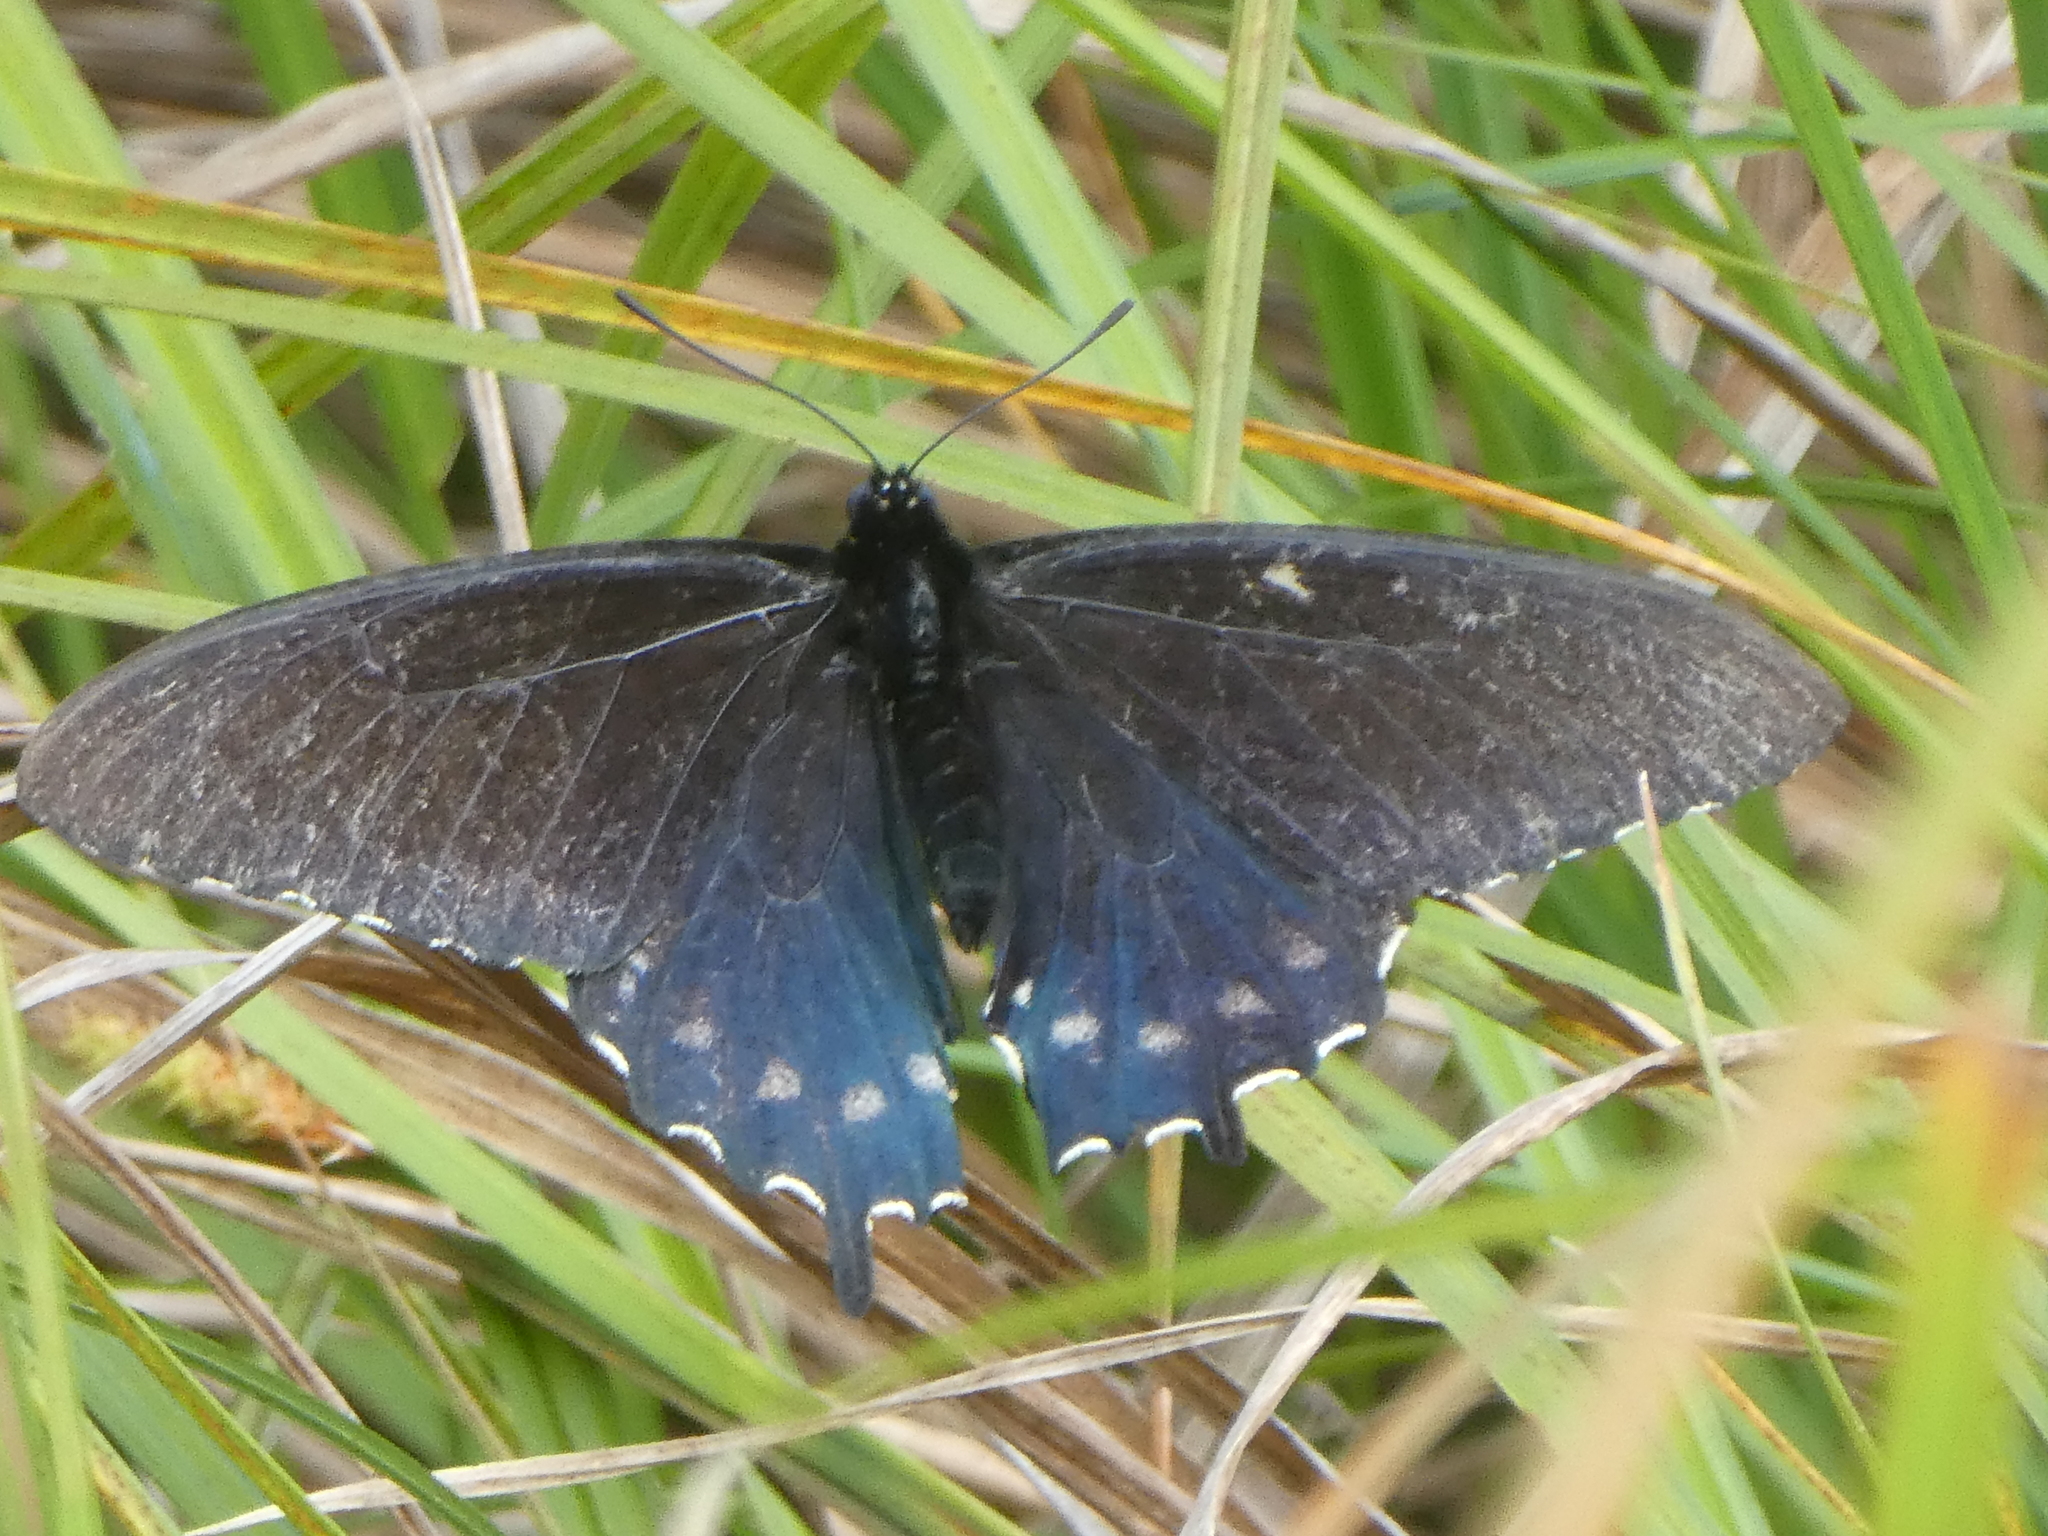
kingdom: Animalia
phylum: Arthropoda
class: Insecta
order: Lepidoptera
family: Papilionidae
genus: Battus
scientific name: Battus philenor
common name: Pipevine swallowtail
